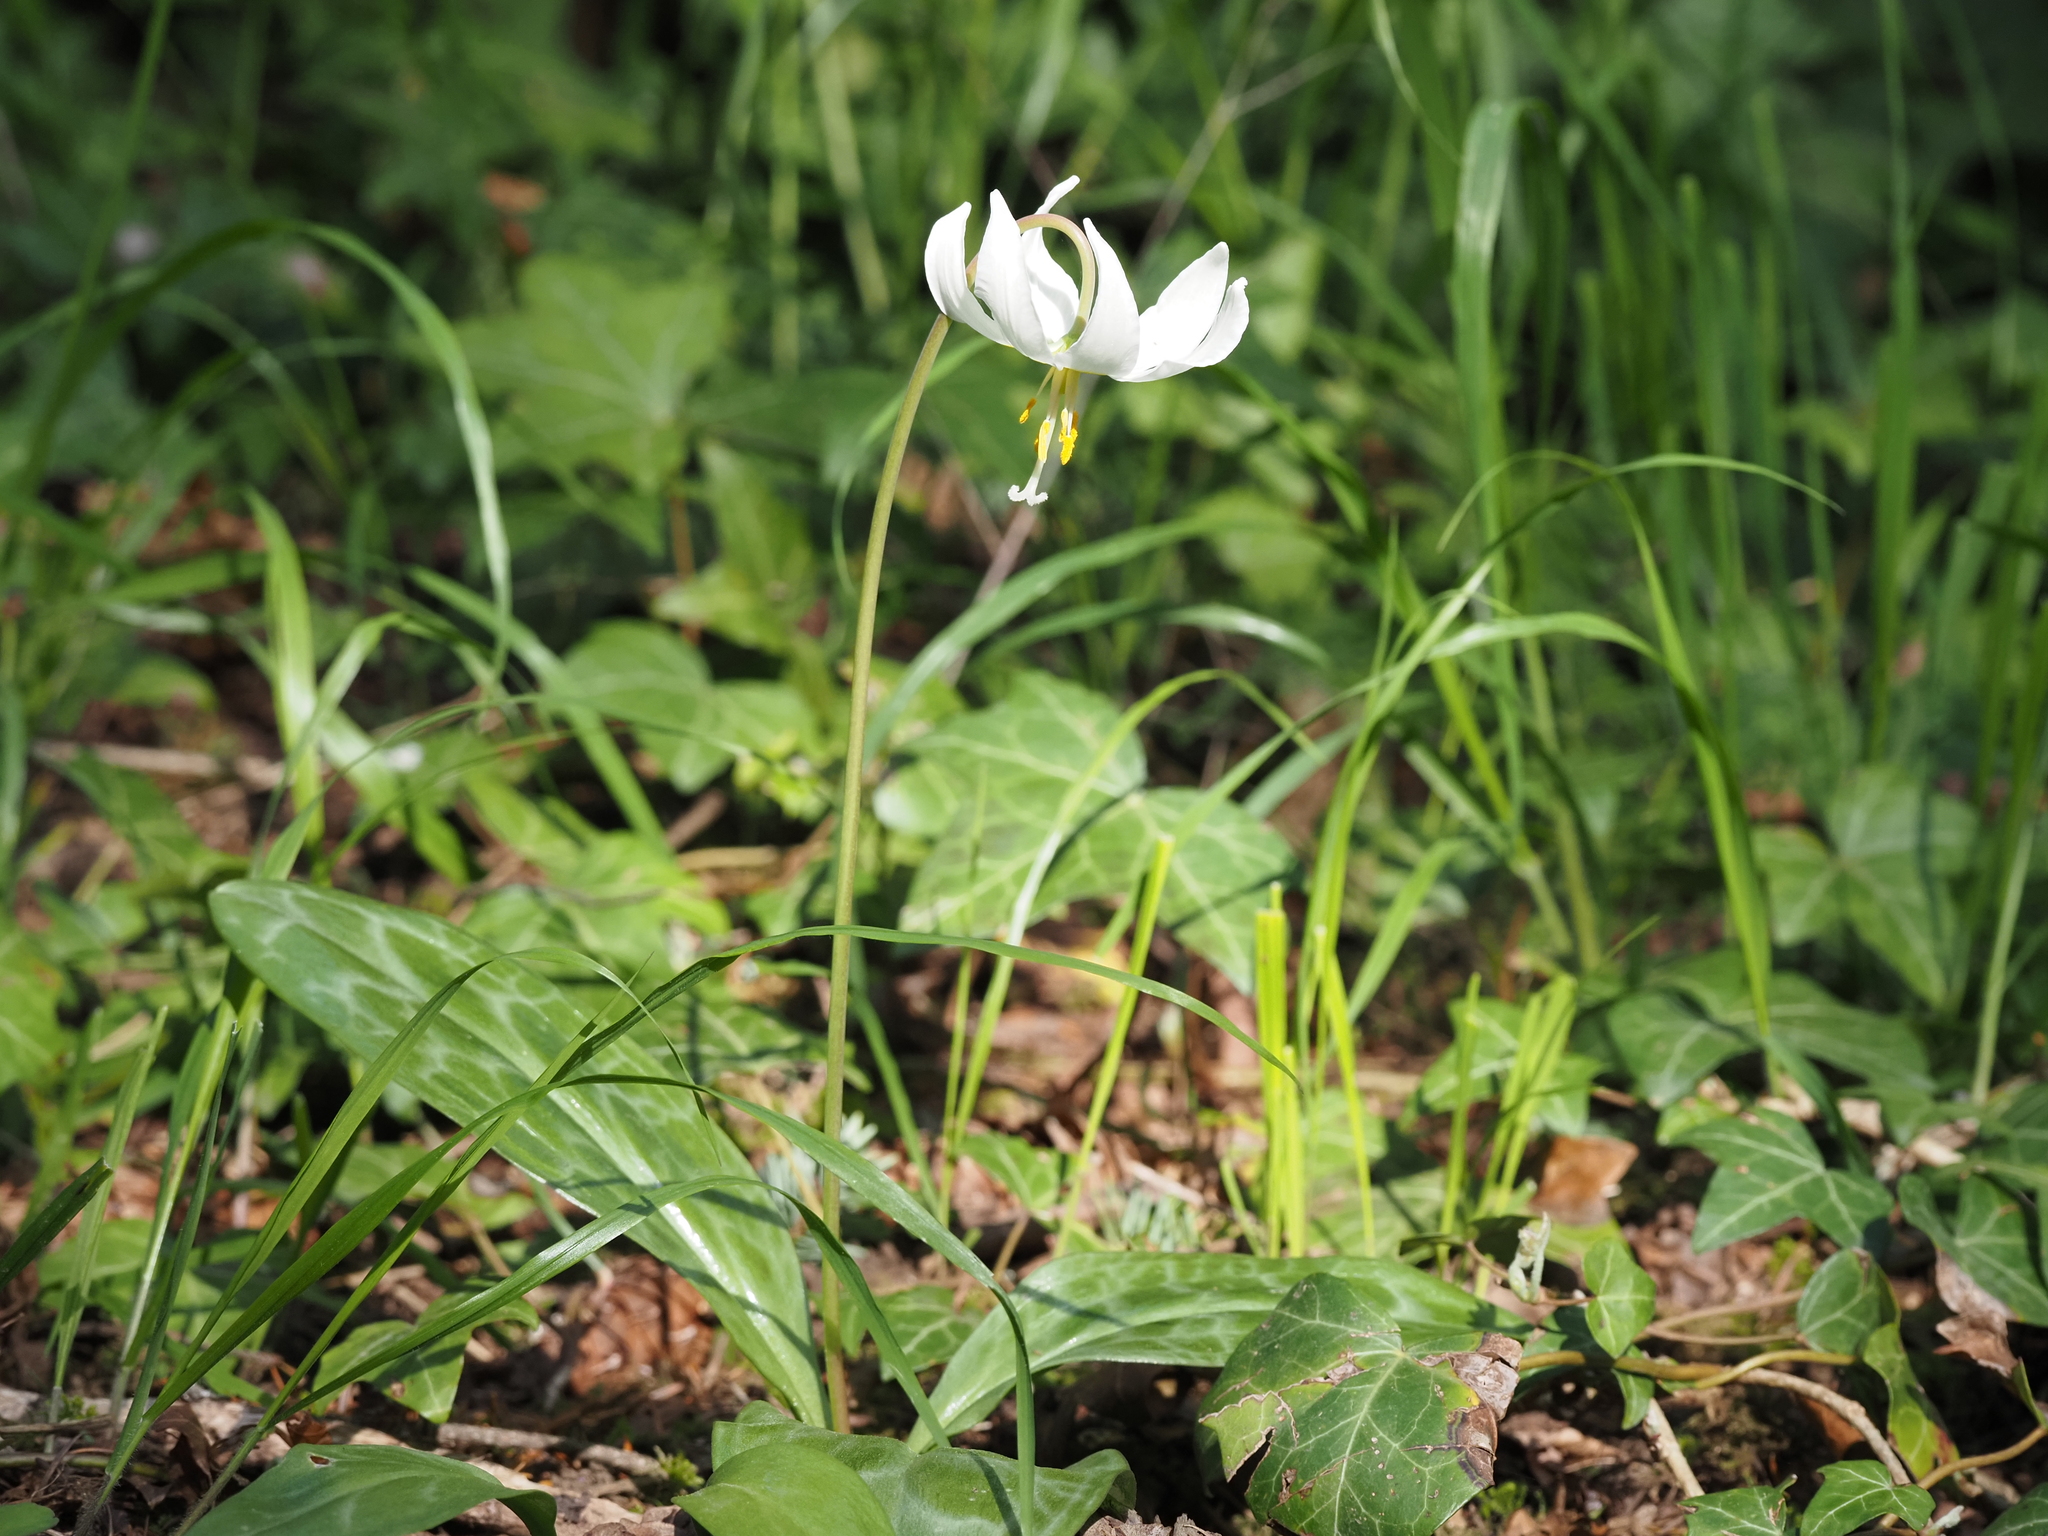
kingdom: Plantae
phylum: Tracheophyta
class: Liliopsida
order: Liliales
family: Liliaceae
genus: Erythronium
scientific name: Erythronium oregonum
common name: Giant adder's-tongue
